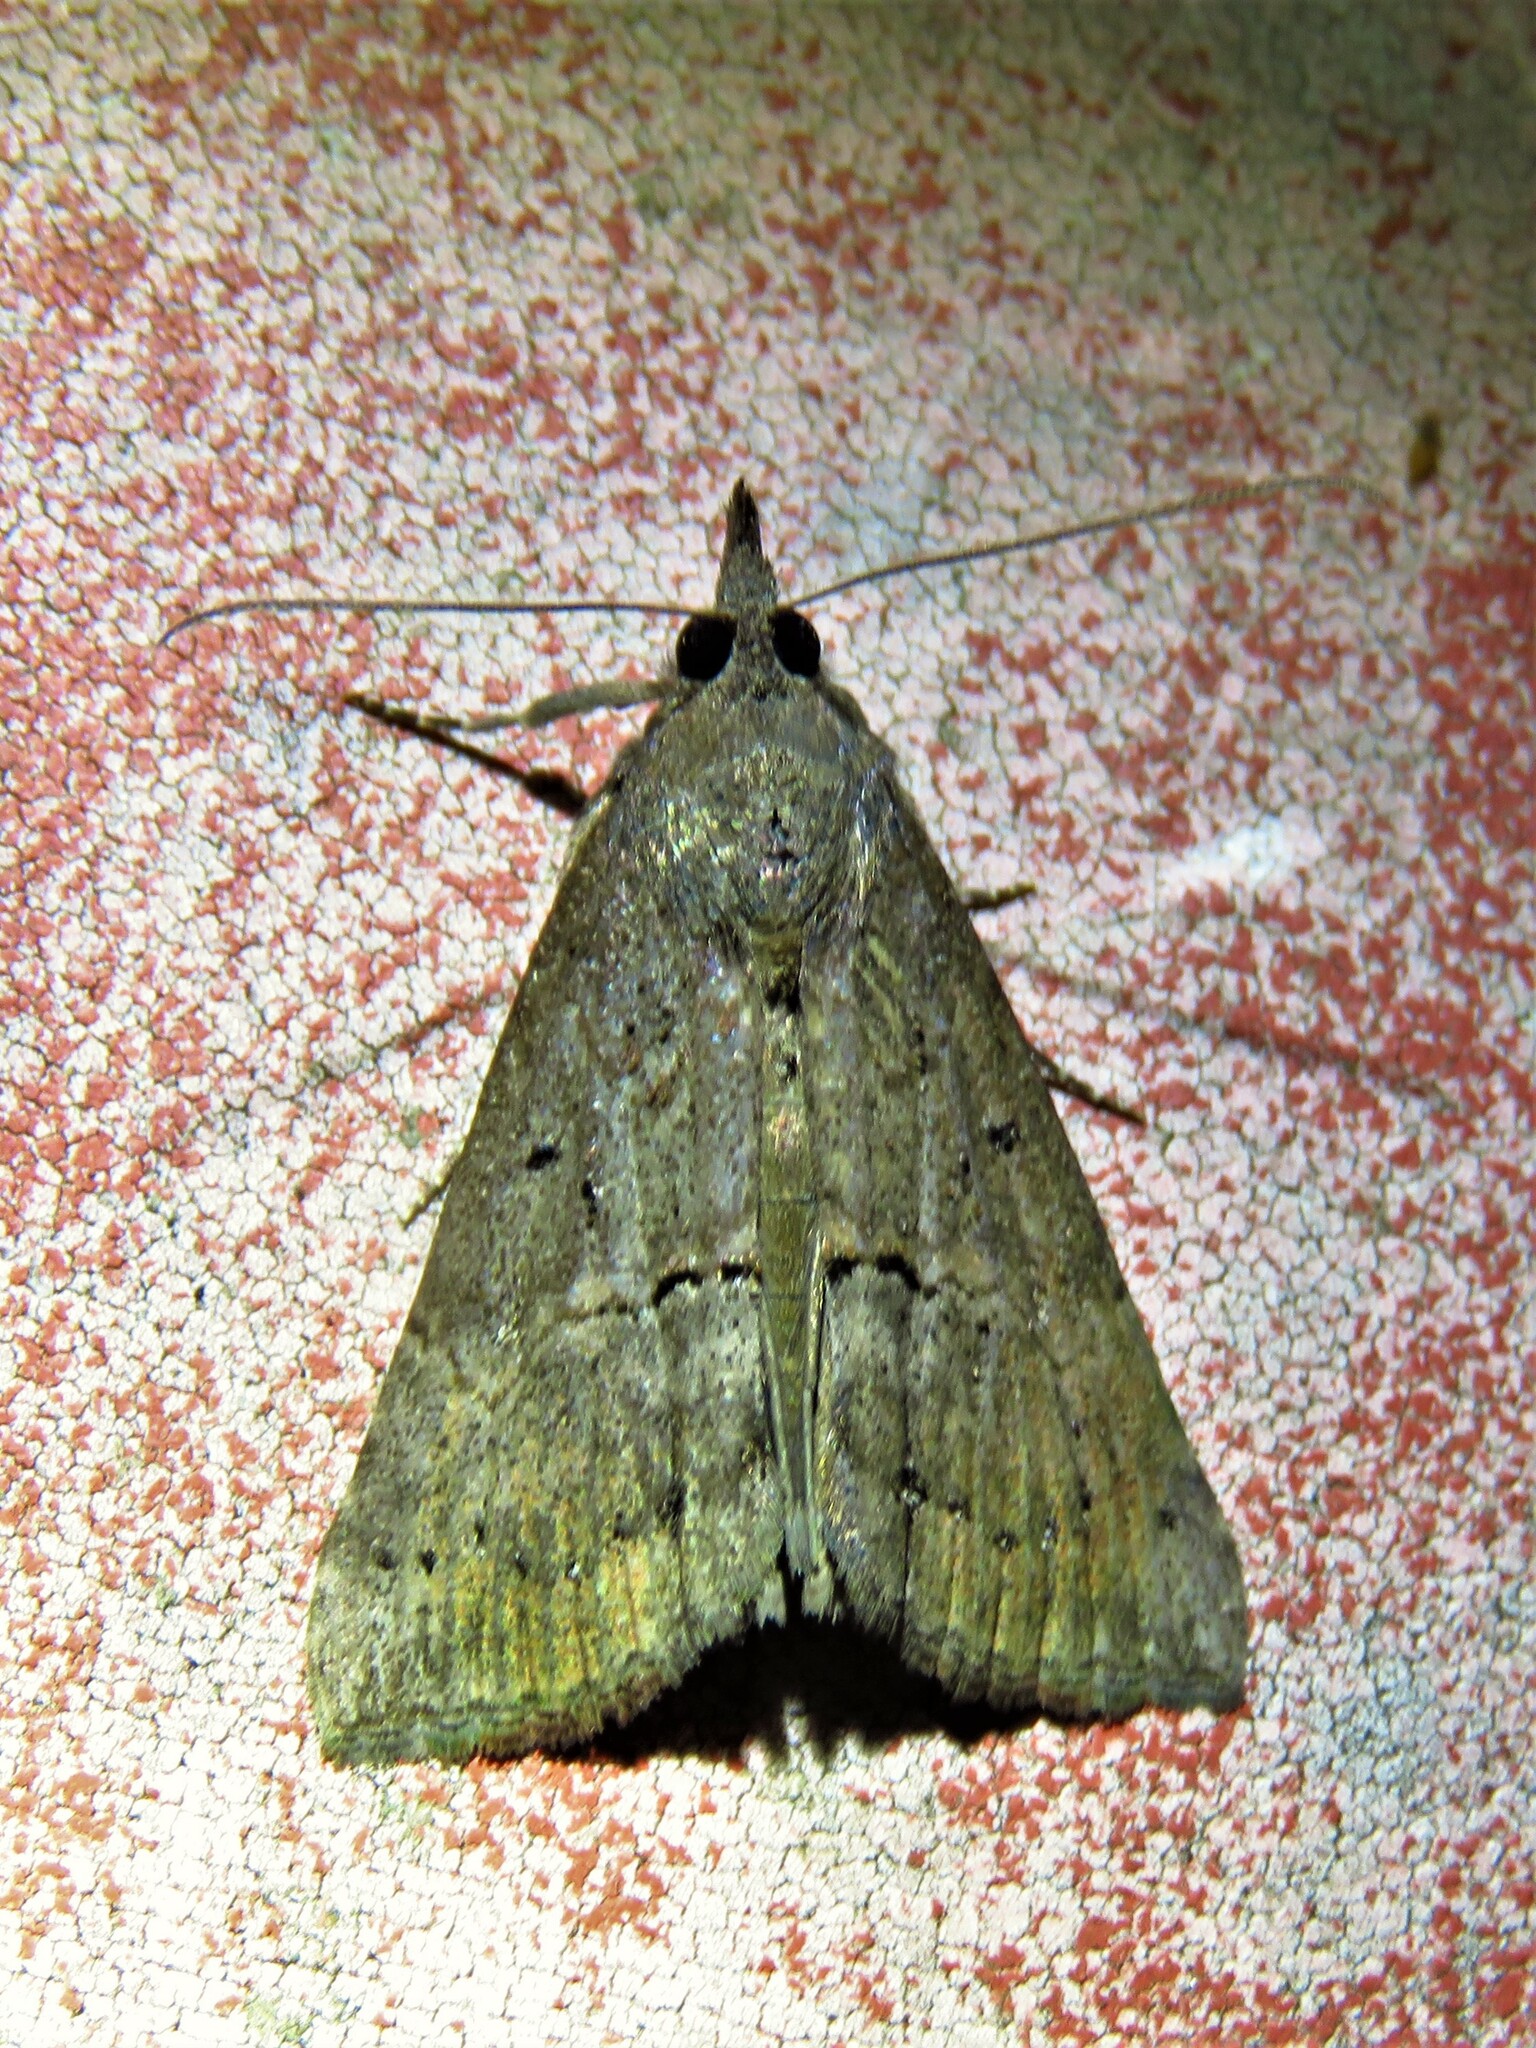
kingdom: Animalia
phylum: Arthropoda
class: Insecta
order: Lepidoptera
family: Erebidae
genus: Hypena
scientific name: Hypena scabra
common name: Green cloverworm
